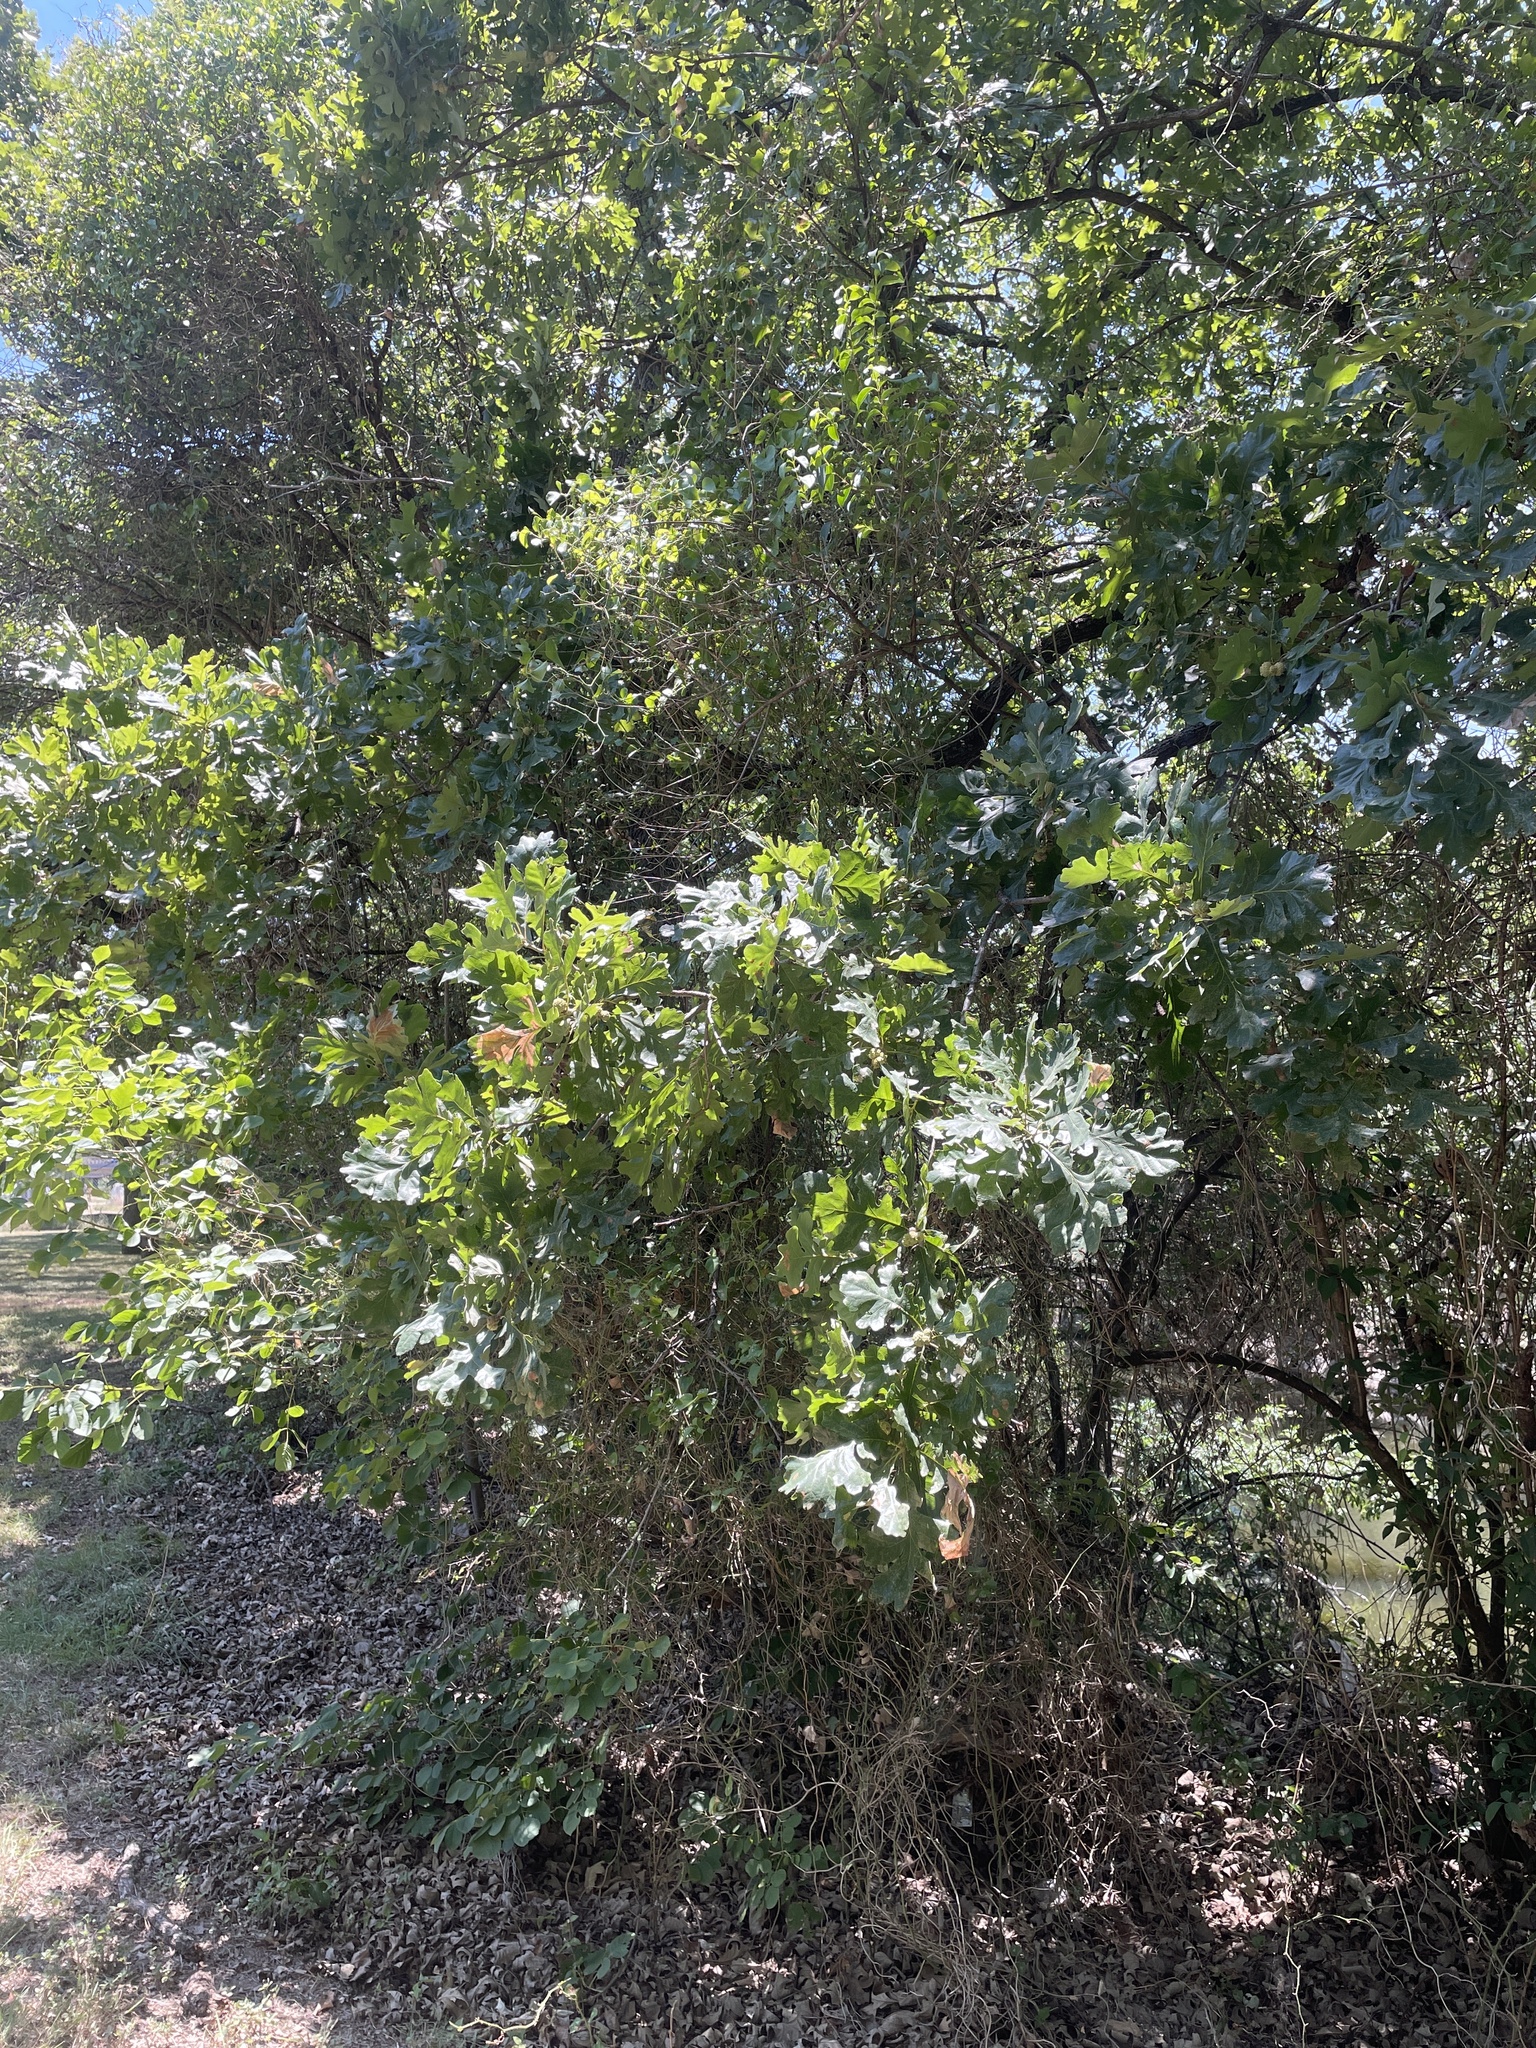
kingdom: Plantae
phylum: Tracheophyta
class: Magnoliopsida
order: Fagales
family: Fagaceae
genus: Quercus
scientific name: Quercus macrocarpa
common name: Bur oak
